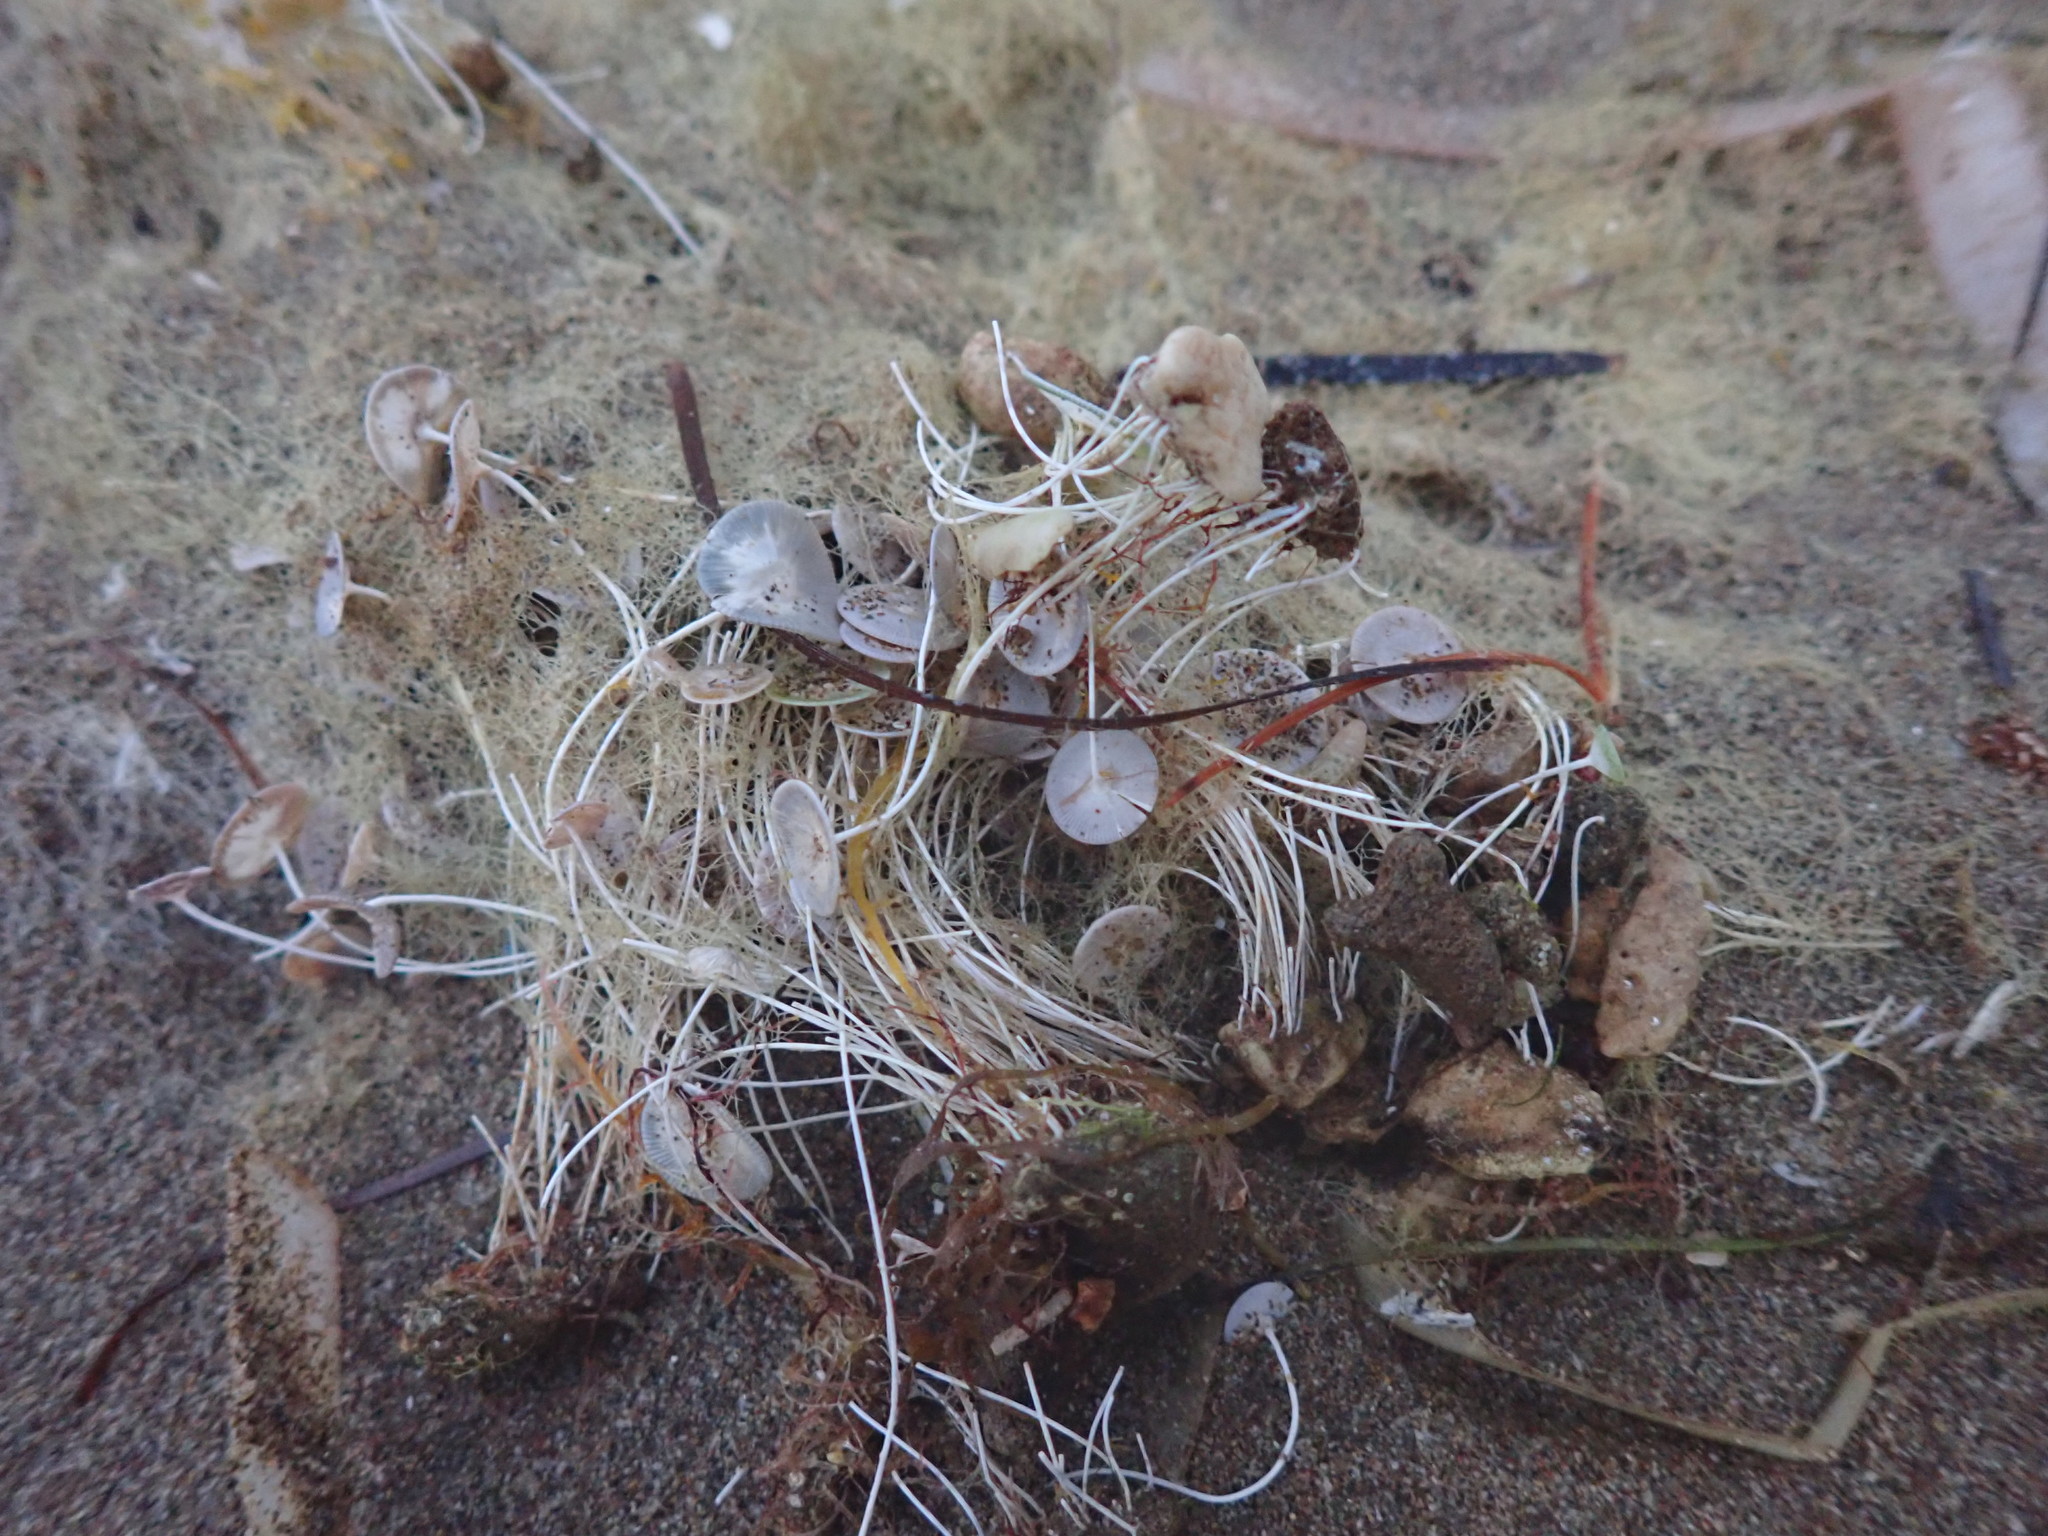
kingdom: Plantae
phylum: Chlorophyta
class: Ulvophyceae
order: Dasycladales
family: Polyphysaceae
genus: Acetabularia
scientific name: Acetabularia acetabulum
